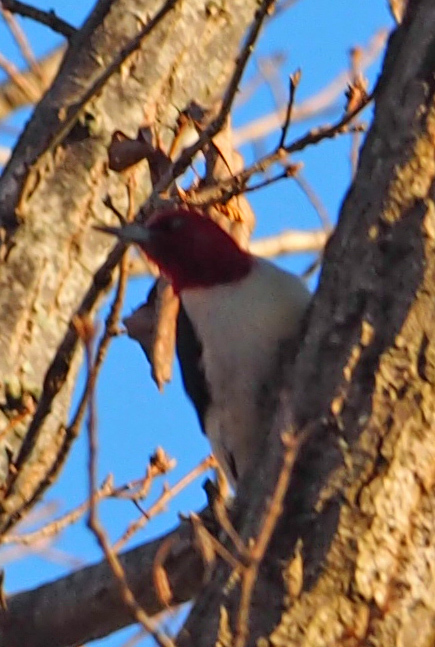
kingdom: Animalia
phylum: Chordata
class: Aves
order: Piciformes
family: Picidae
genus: Melanerpes
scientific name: Melanerpes erythrocephalus
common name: Red-headed woodpecker
